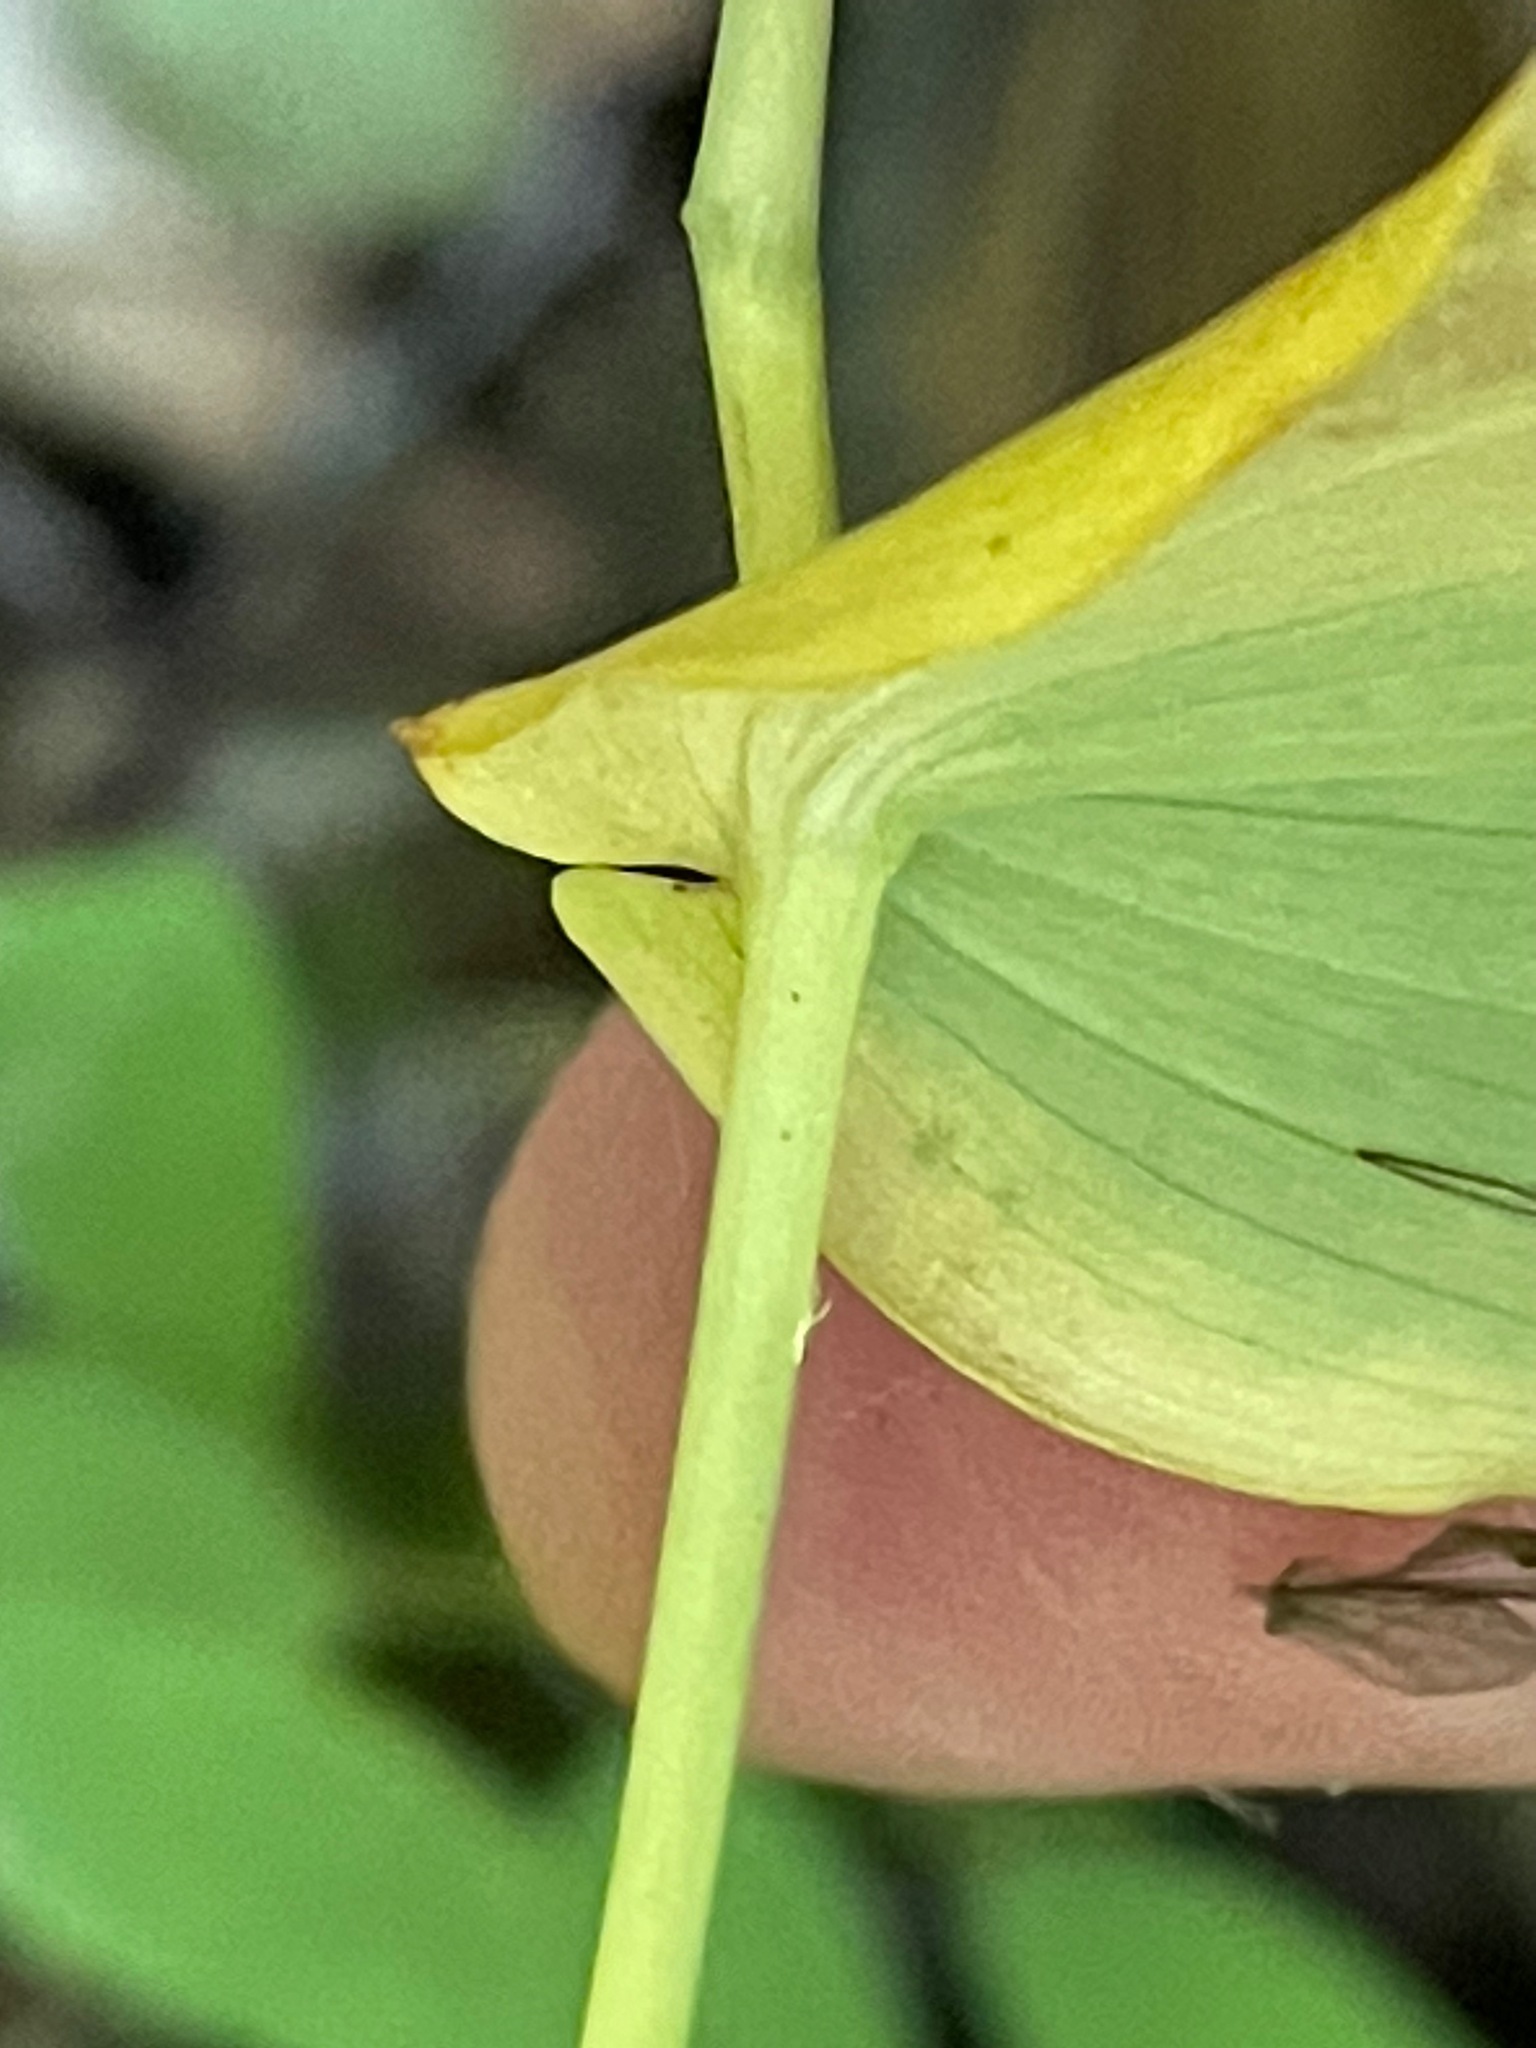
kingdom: Plantae
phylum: Tracheophyta
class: Liliopsida
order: Liliales
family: Liliaceae
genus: Streptopus
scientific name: Streptopus amplexifolius
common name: Clasp twisted stalk
